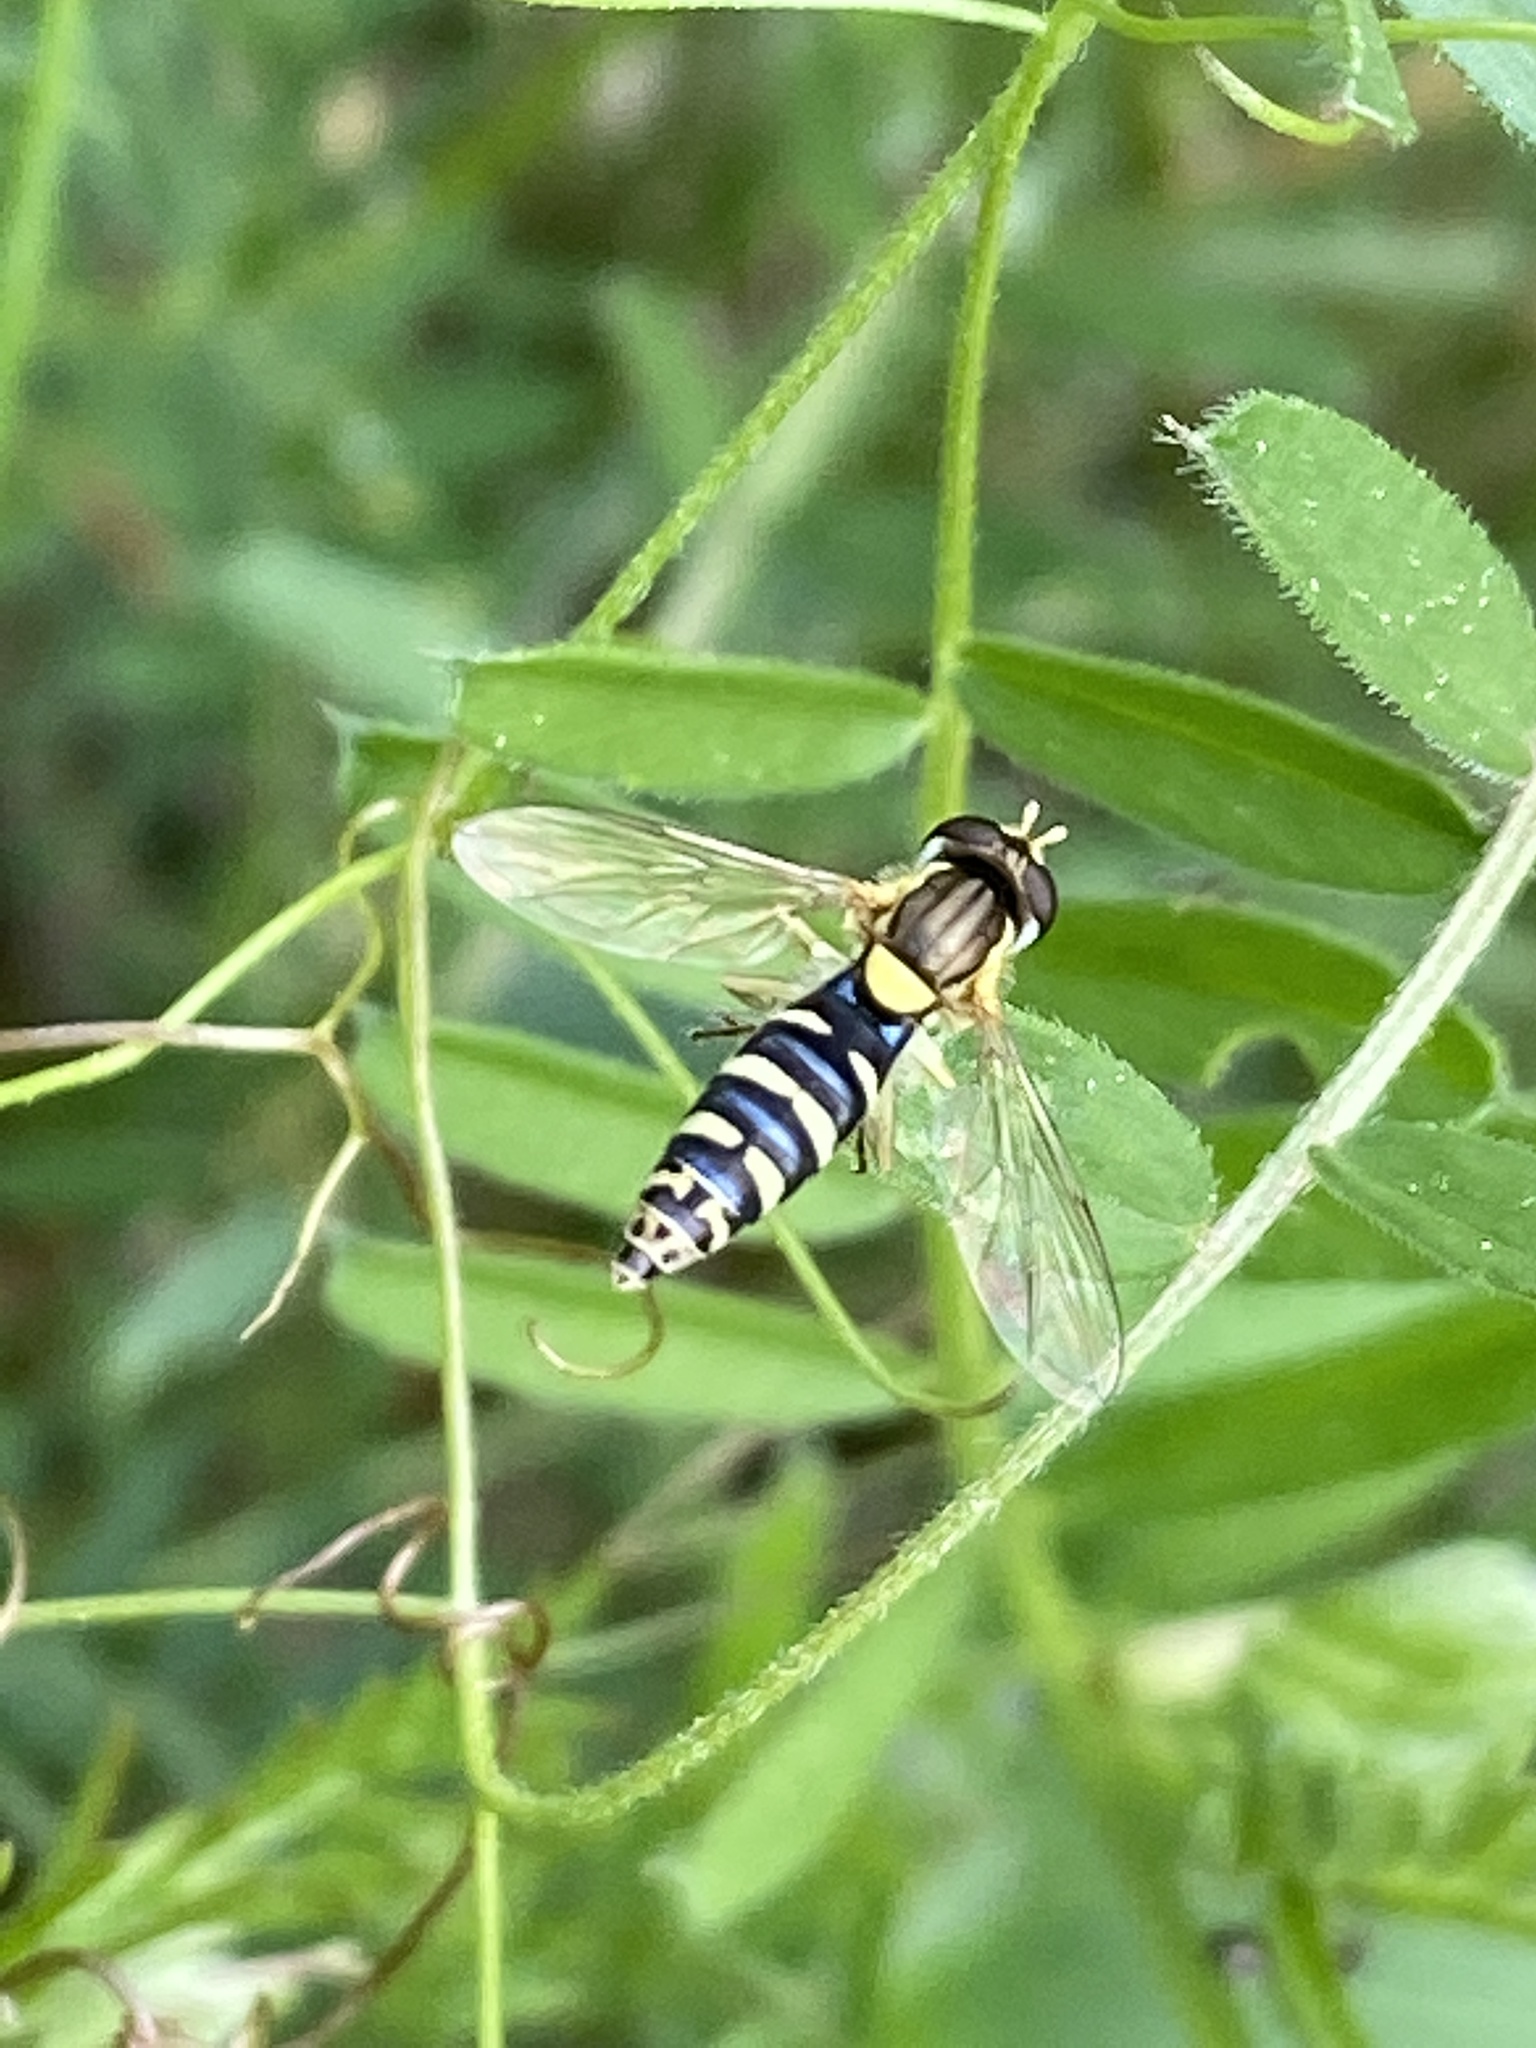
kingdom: Animalia
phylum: Arthropoda
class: Insecta
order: Diptera
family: Syrphidae
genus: Sphaerophoria
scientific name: Sphaerophoria
